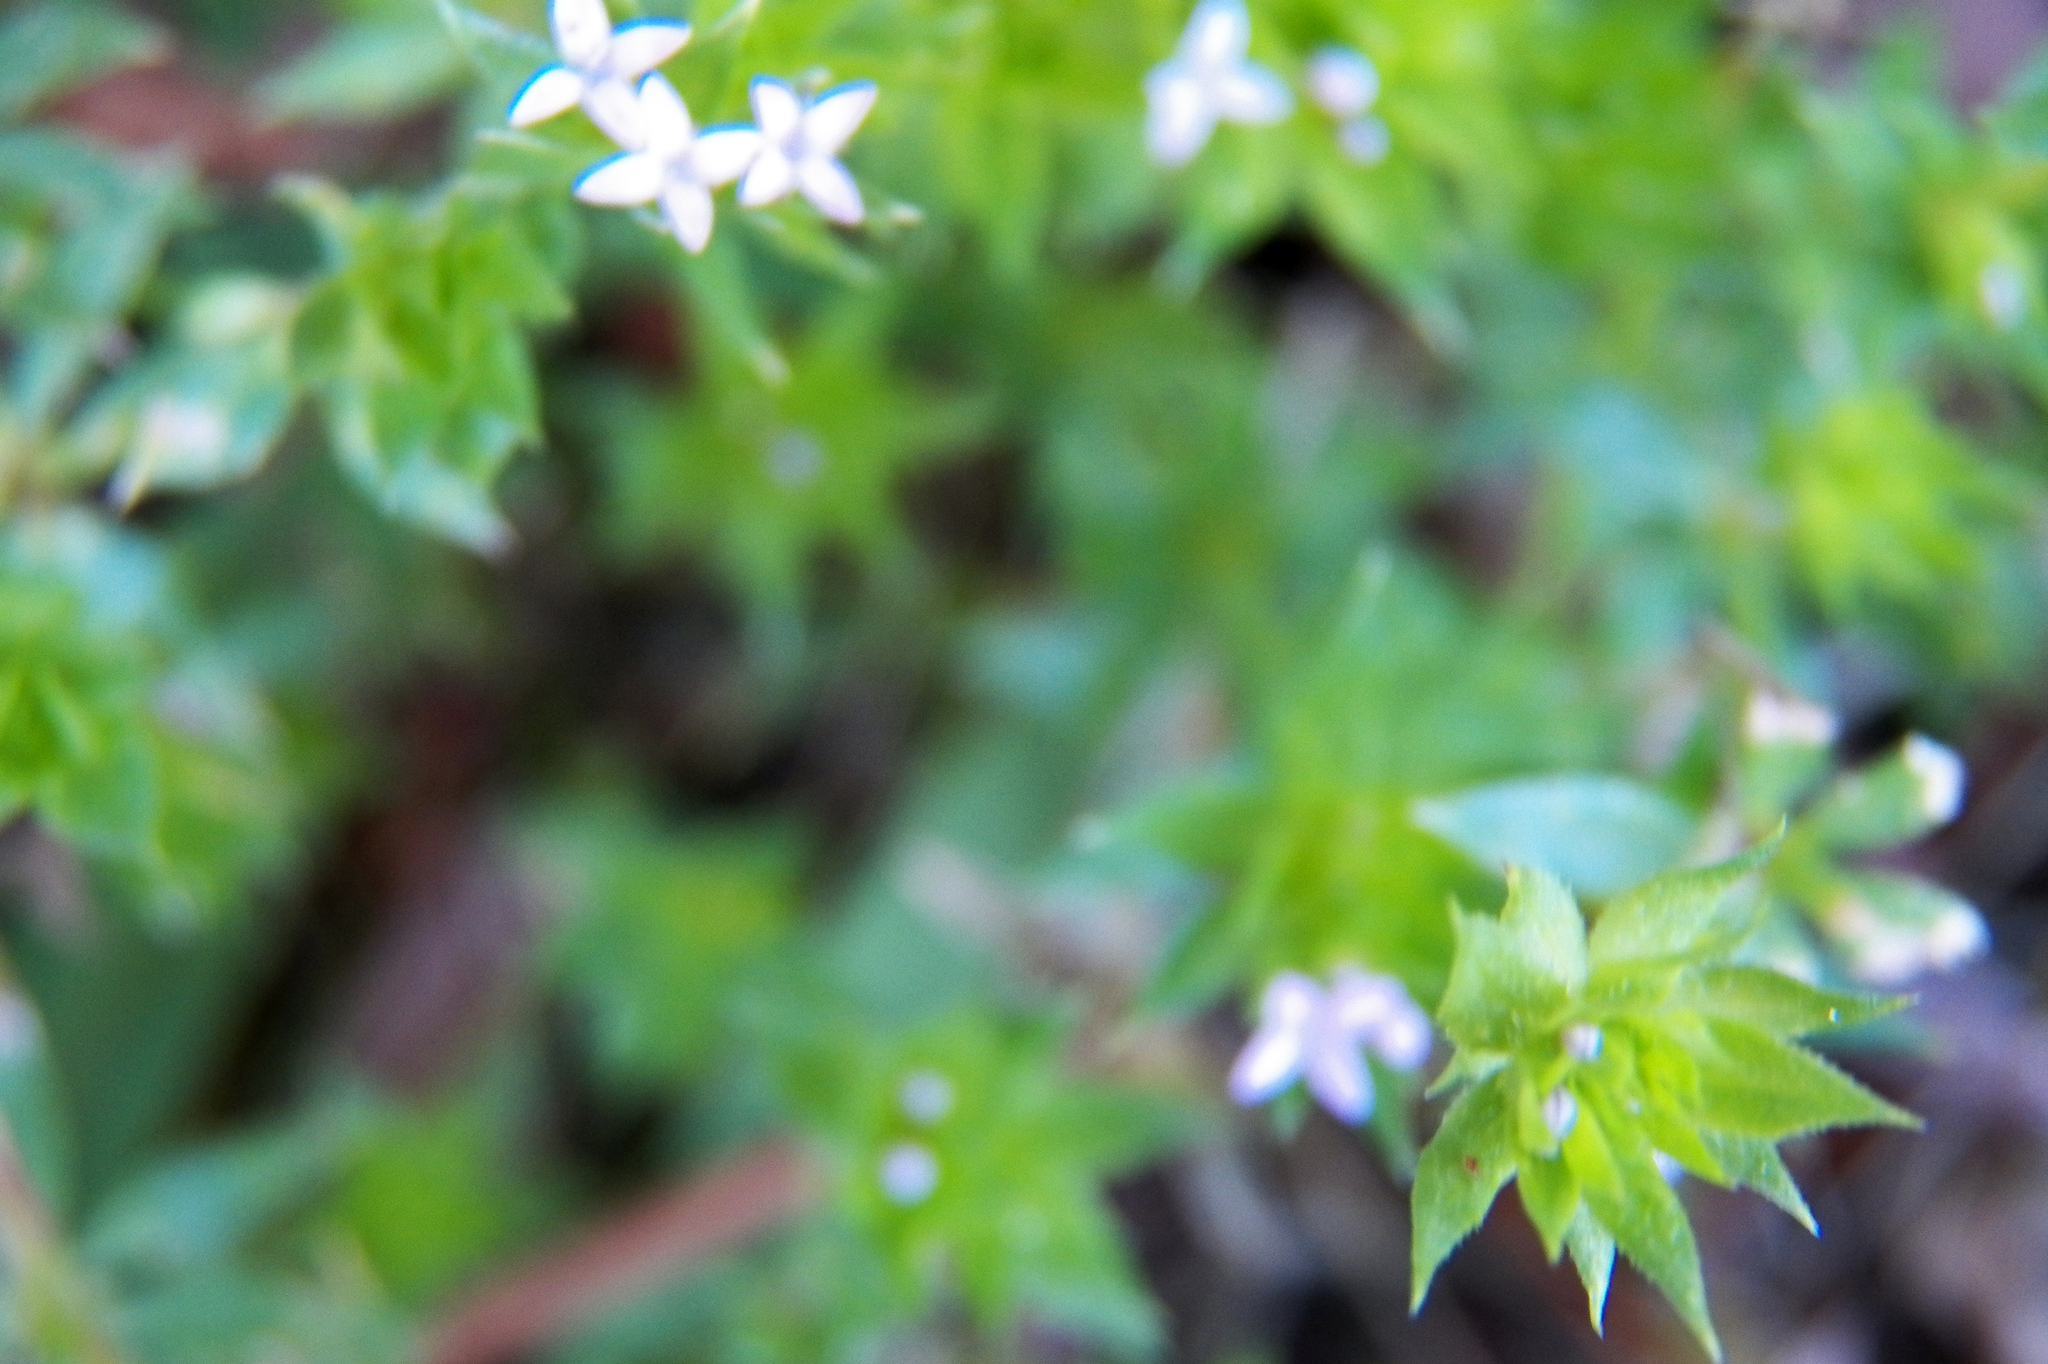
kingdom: Plantae
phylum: Tracheophyta
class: Magnoliopsida
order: Gentianales
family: Rubiaceae
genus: Sherardia
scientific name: Sherardia arvensis
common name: Field madder
